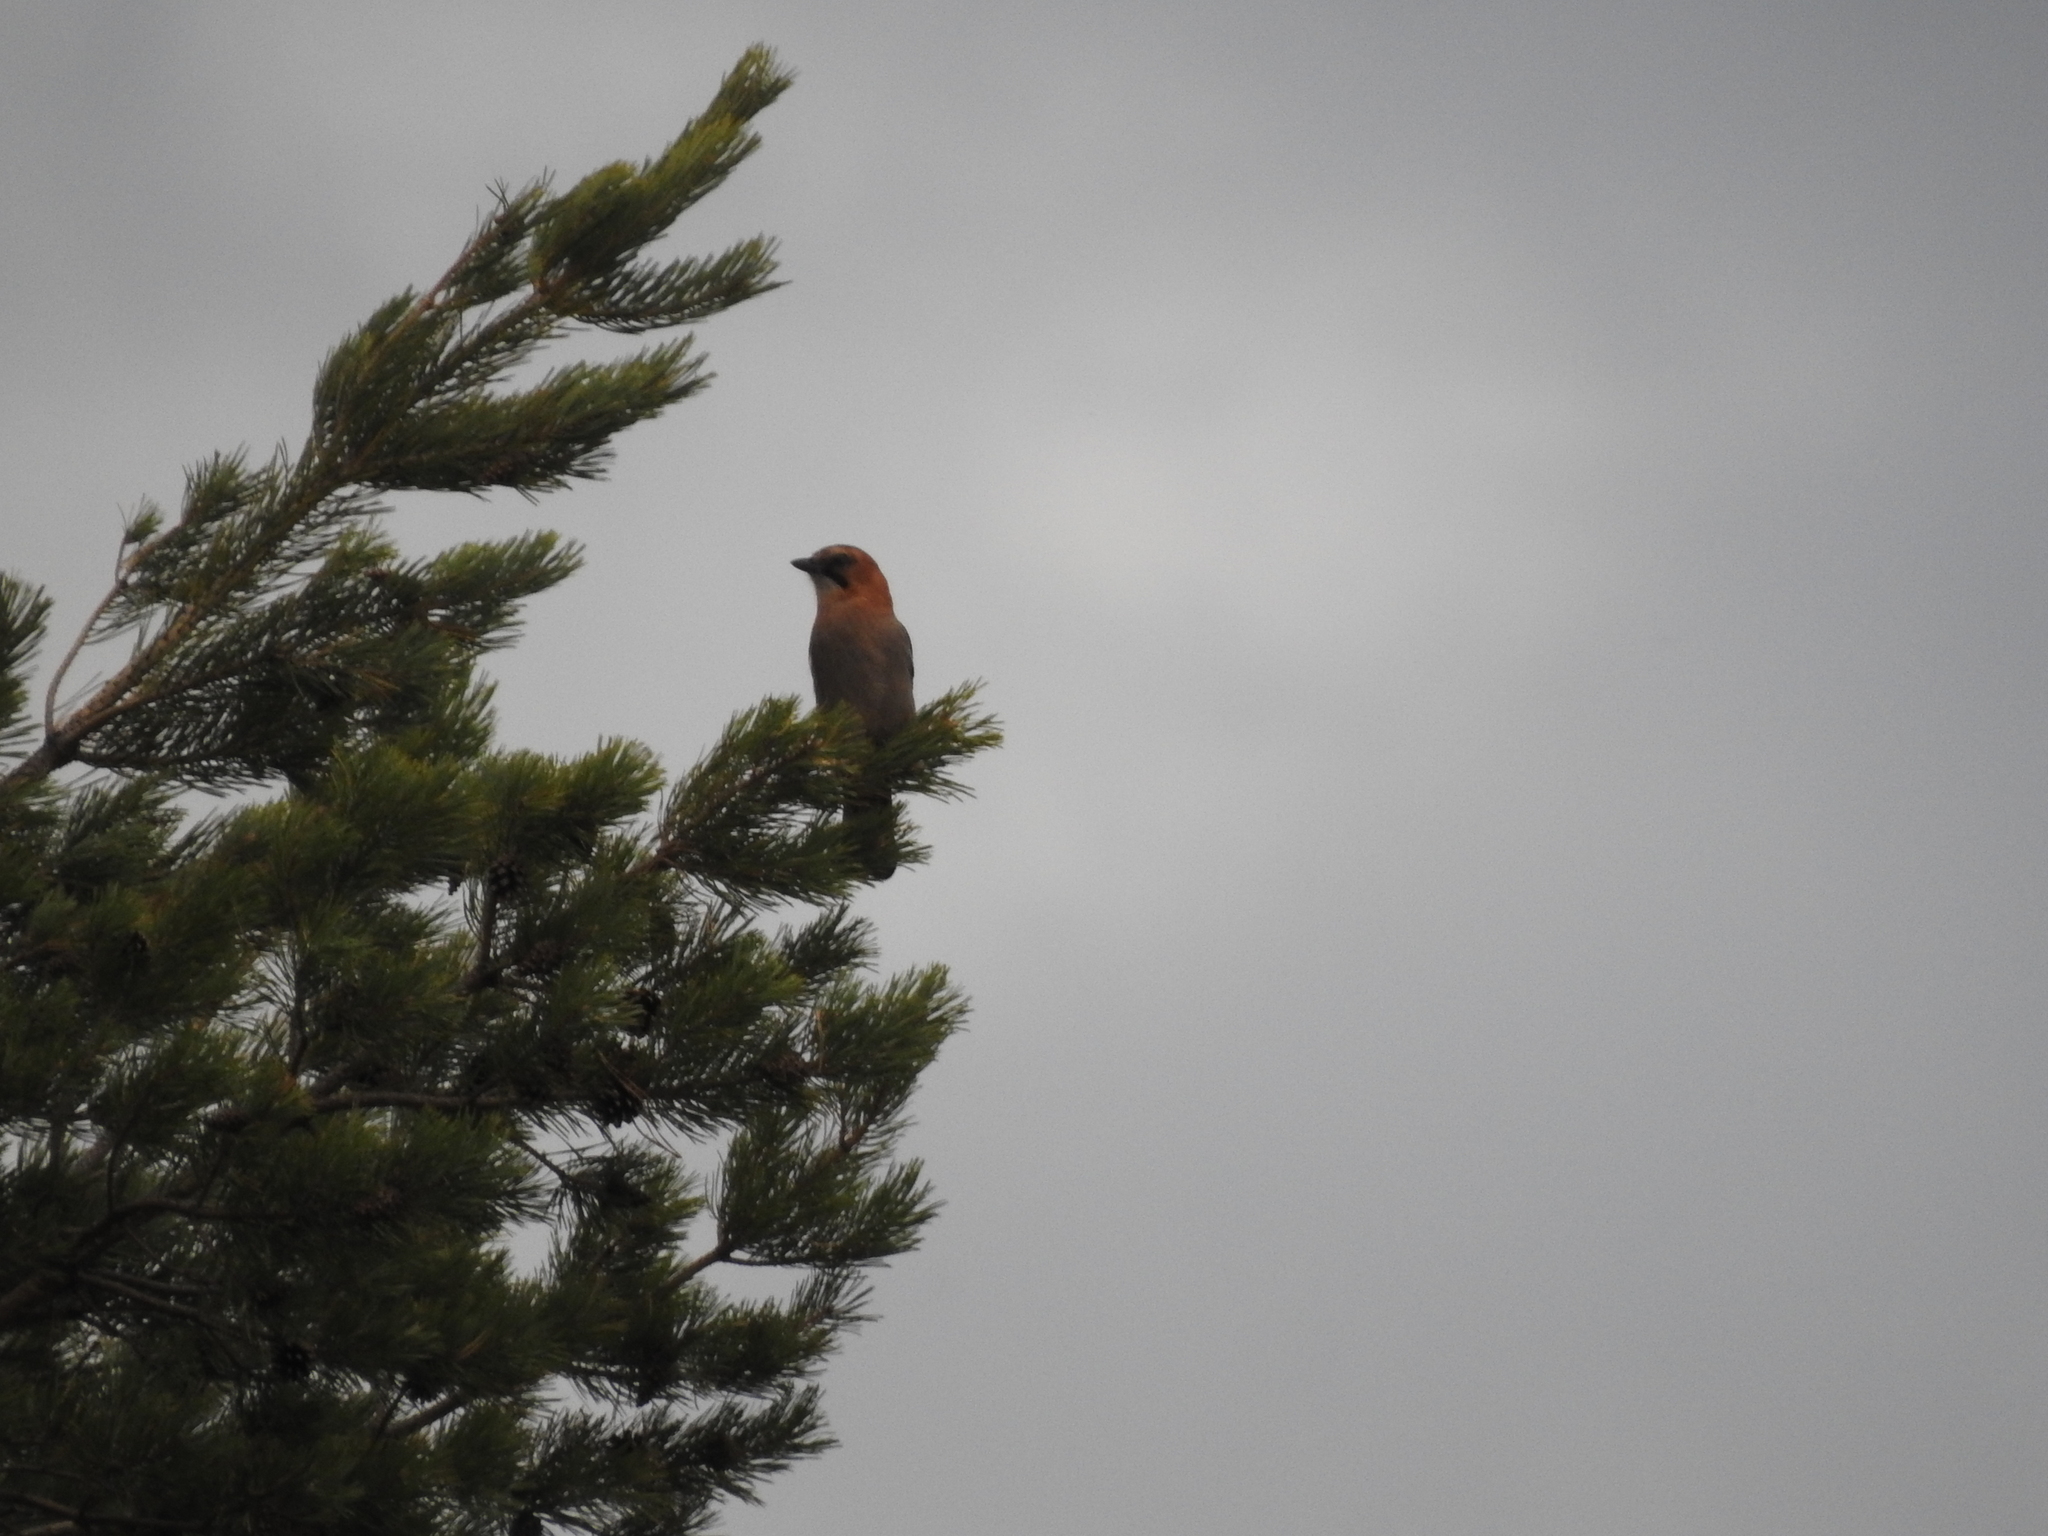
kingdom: Animalia
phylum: Chordata
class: Aves
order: Passeriformes
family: Corvidae
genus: Garrulus
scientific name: Garrulus glandarius
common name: Eurasian jay
